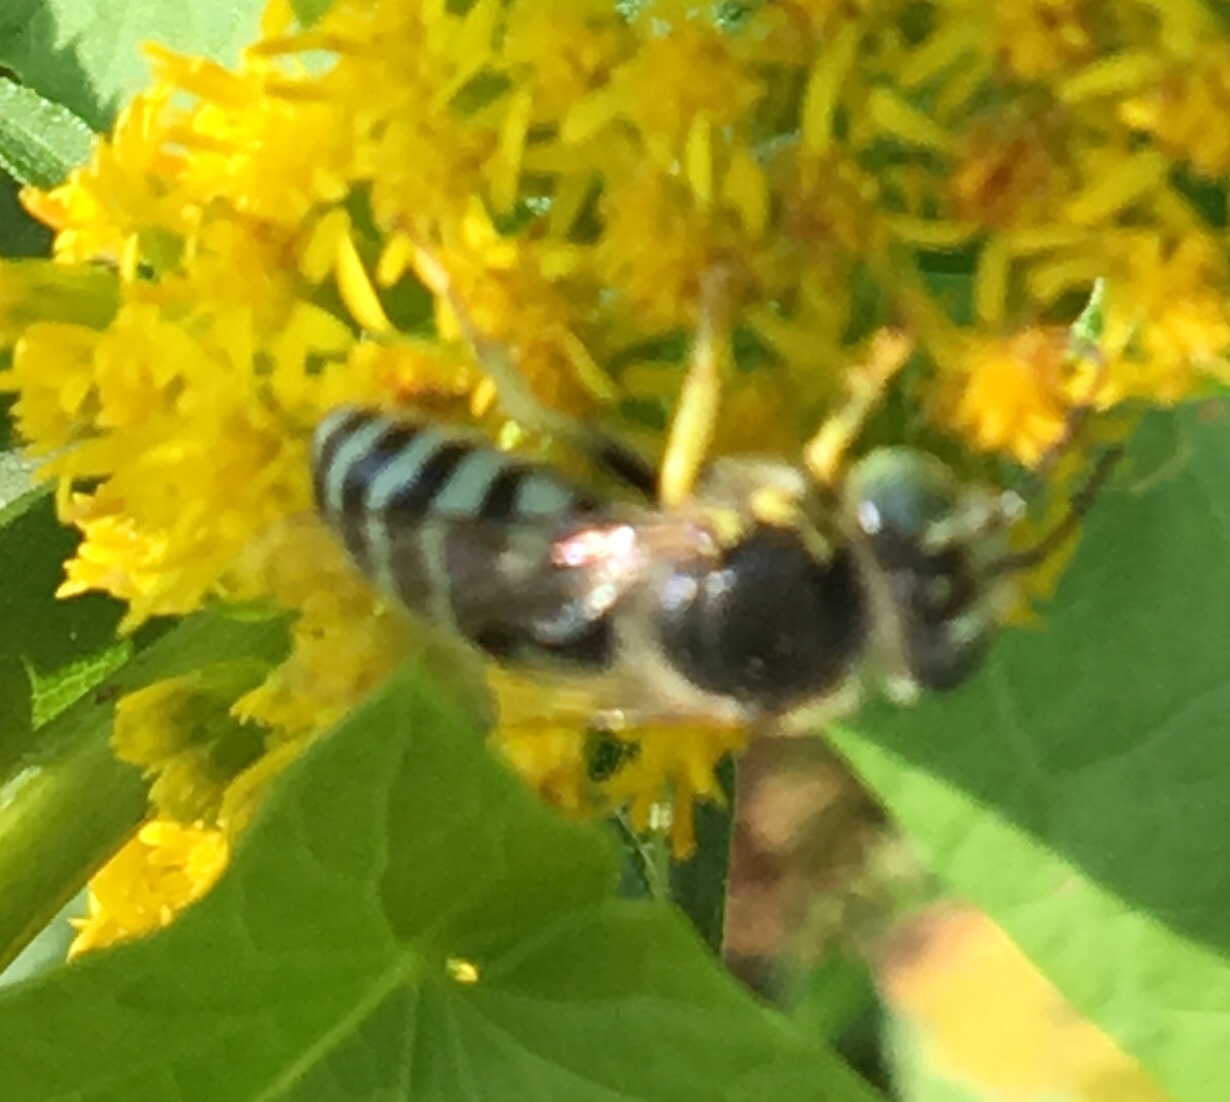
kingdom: Animalia
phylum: Arthropoda
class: Insecta
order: Hymenoptera
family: Crabronidae
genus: Bembix
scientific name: Bembix americana
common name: American sand wasp
